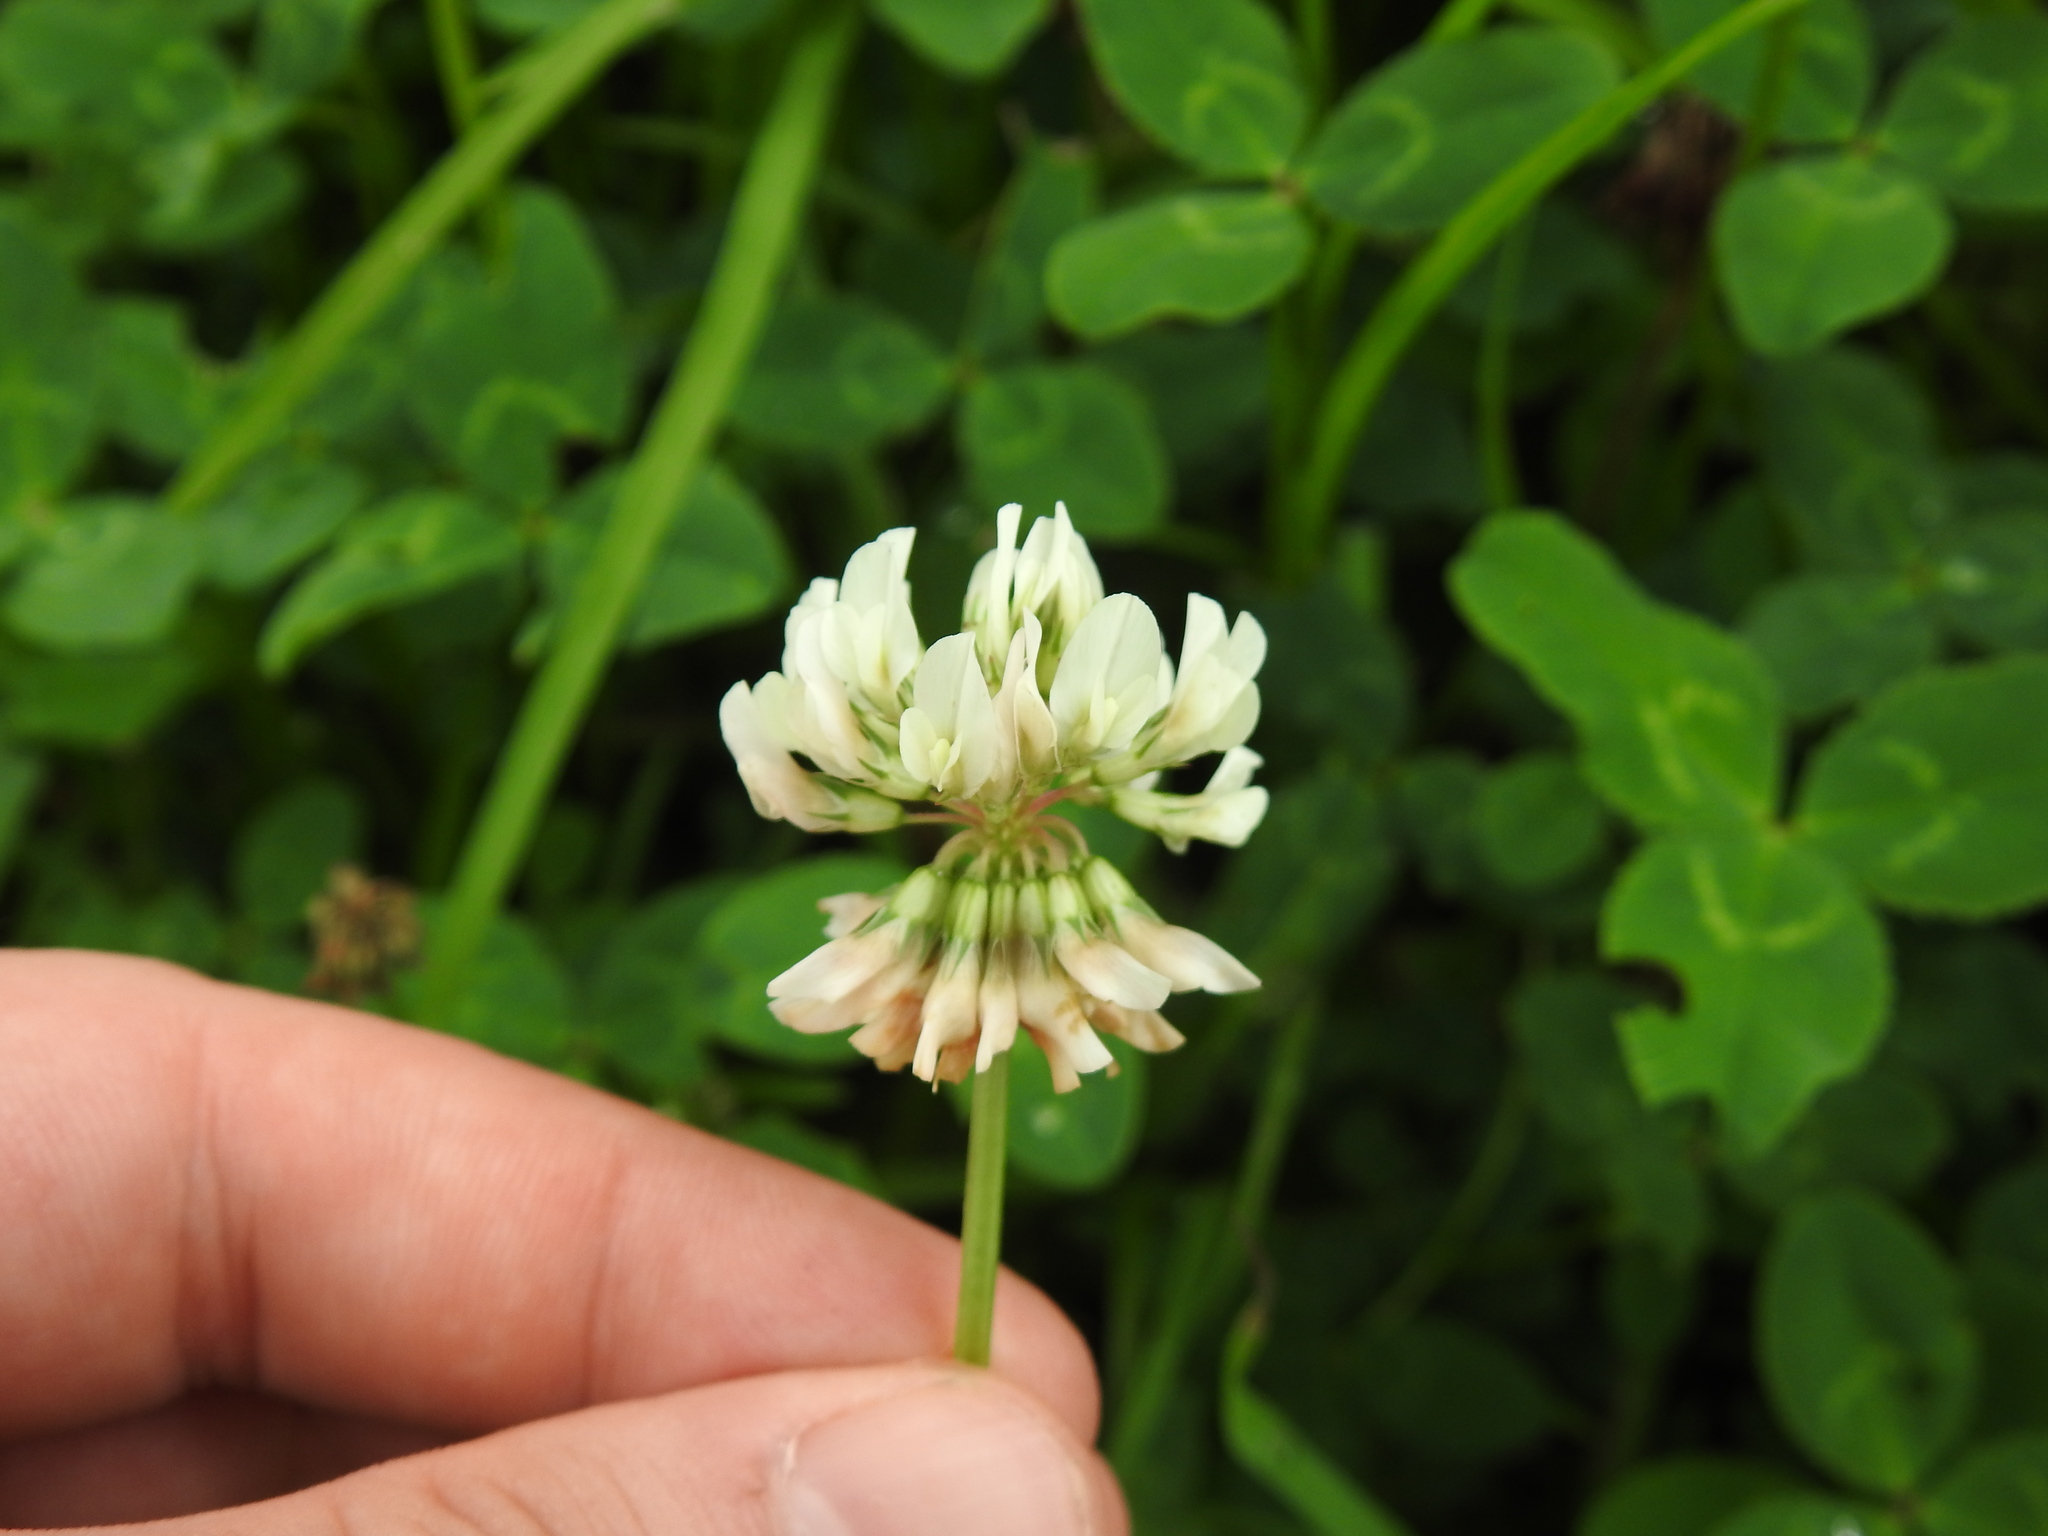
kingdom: Plantae
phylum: Tracheophyta
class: Magnoliopsida
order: Fabales
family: Fabaceae
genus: Trifolium
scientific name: Trifolium repens
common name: White clover
